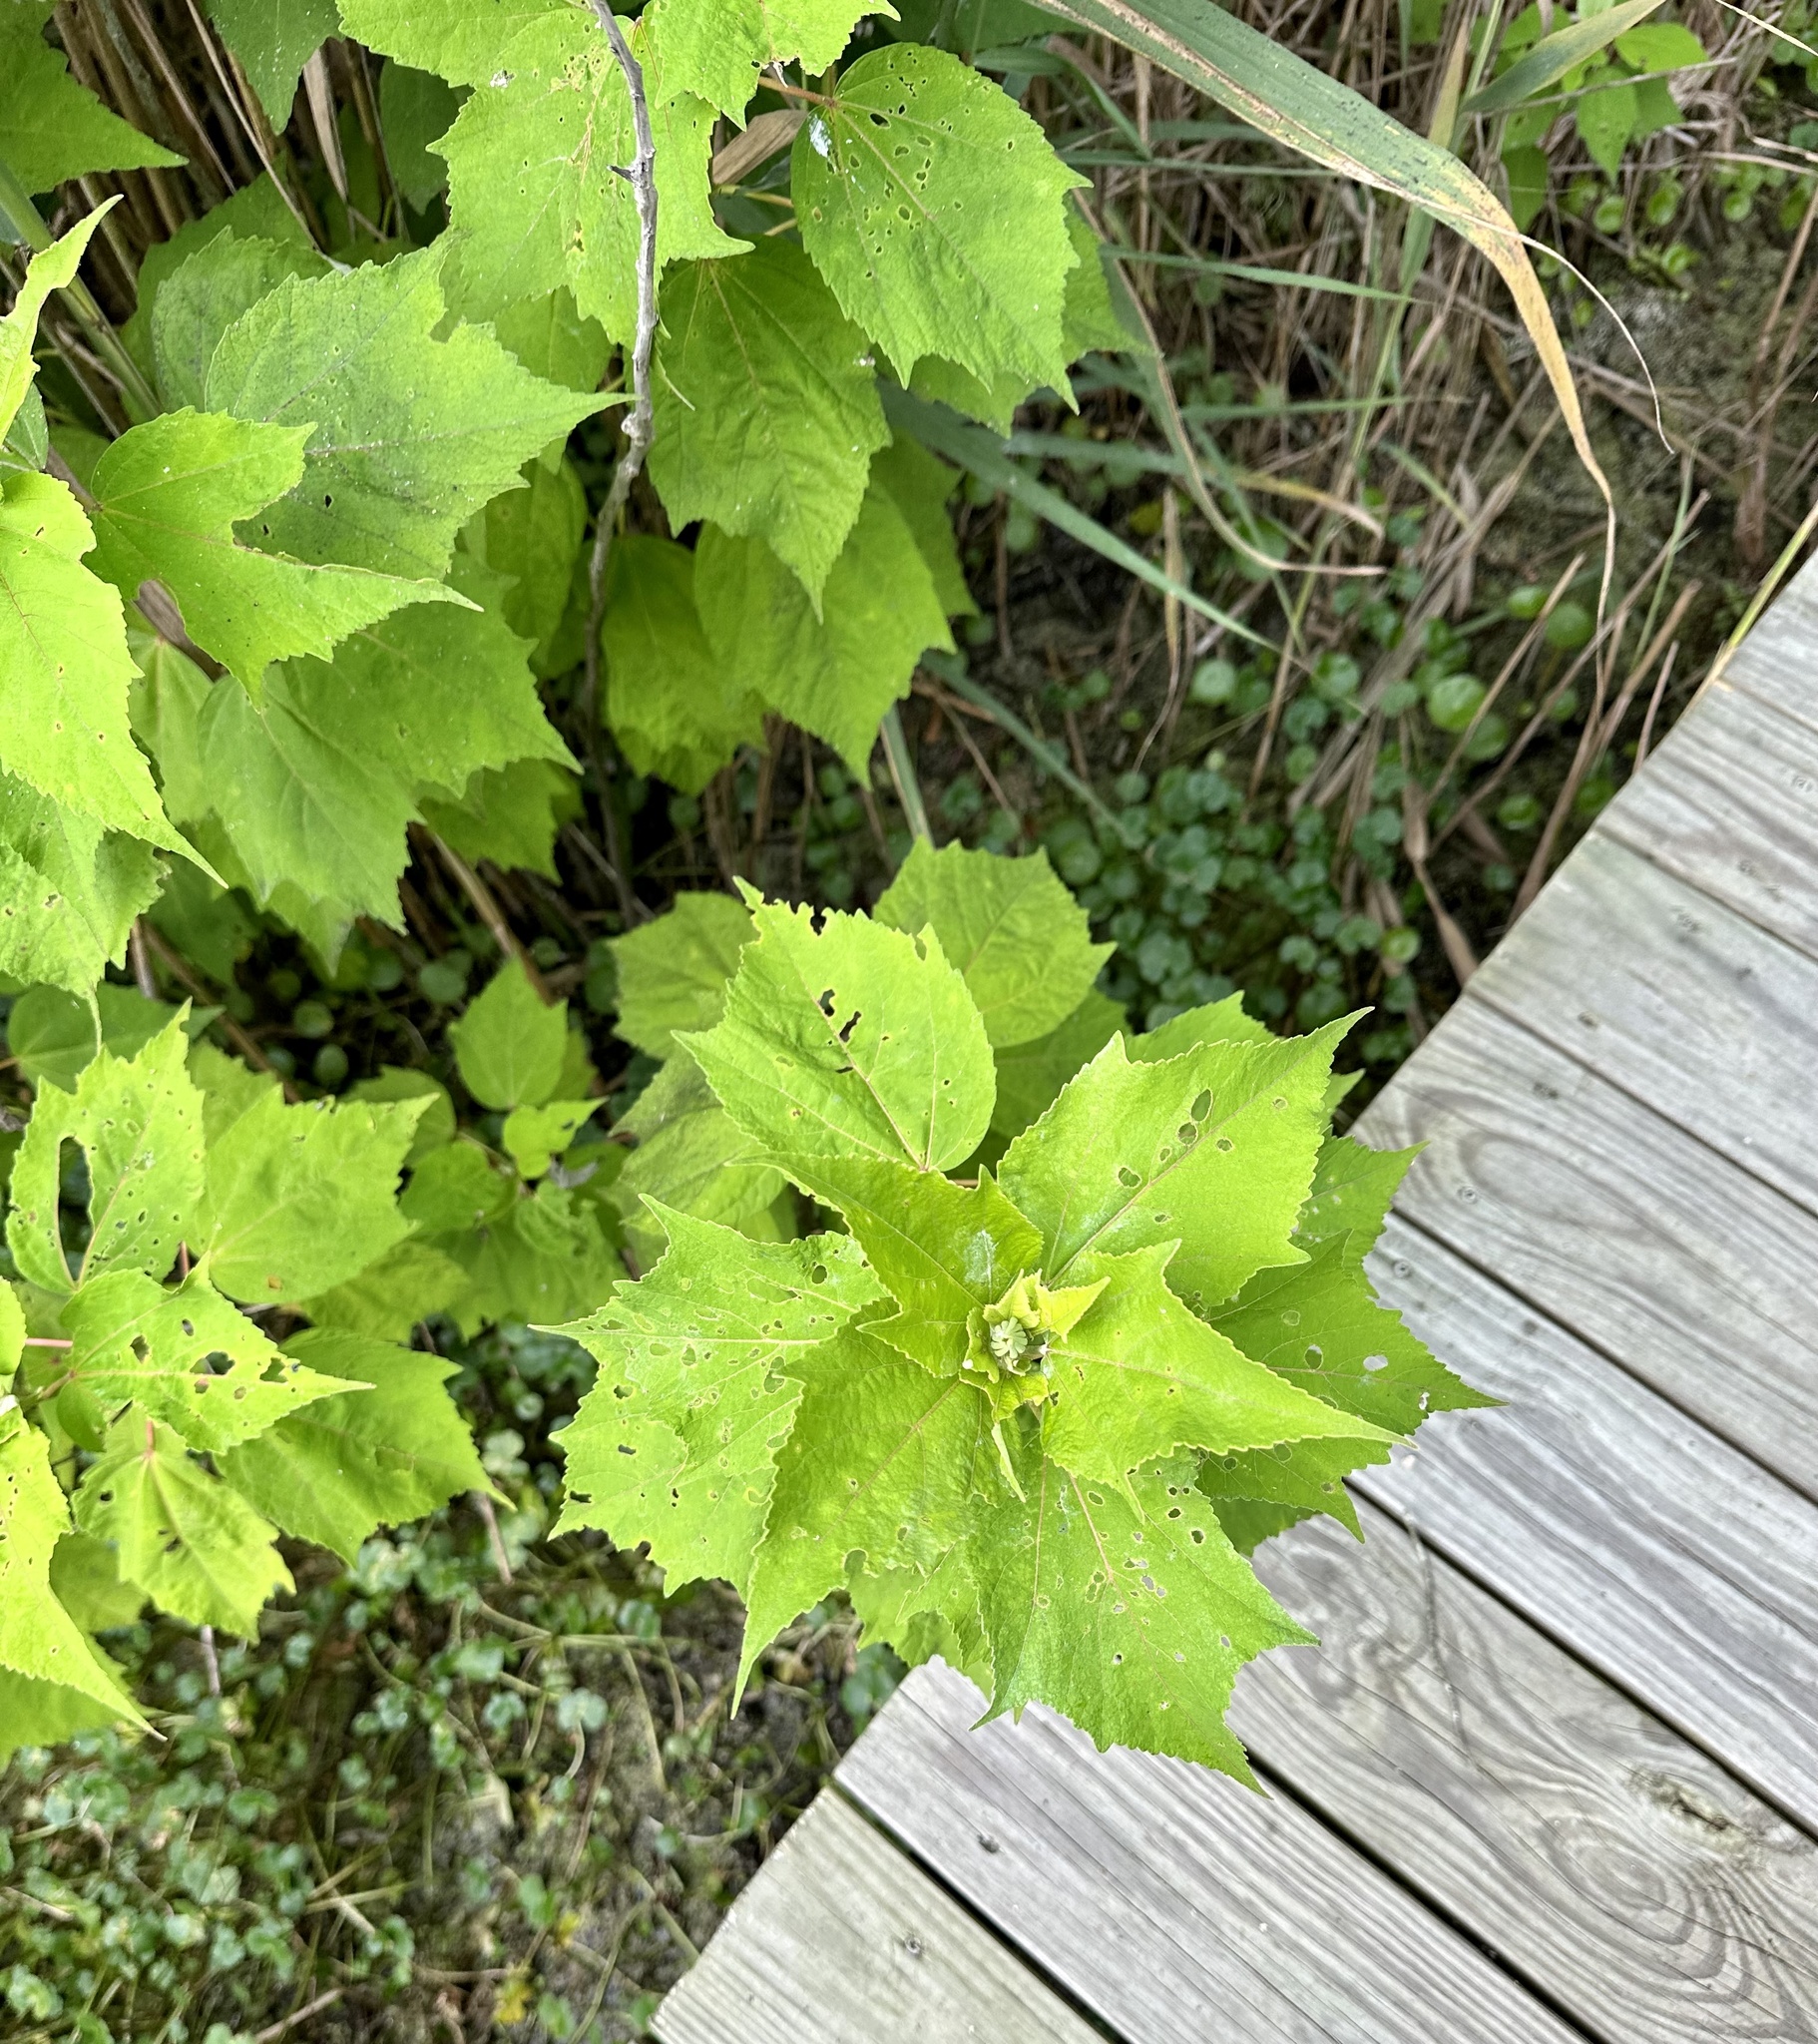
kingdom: Plantae
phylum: Tracheophyta
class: Magnoliopsida
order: Malvales
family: Malvaceae
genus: Hibiscus
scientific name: Hibiscus moscheutos
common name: Common rose-mallow
